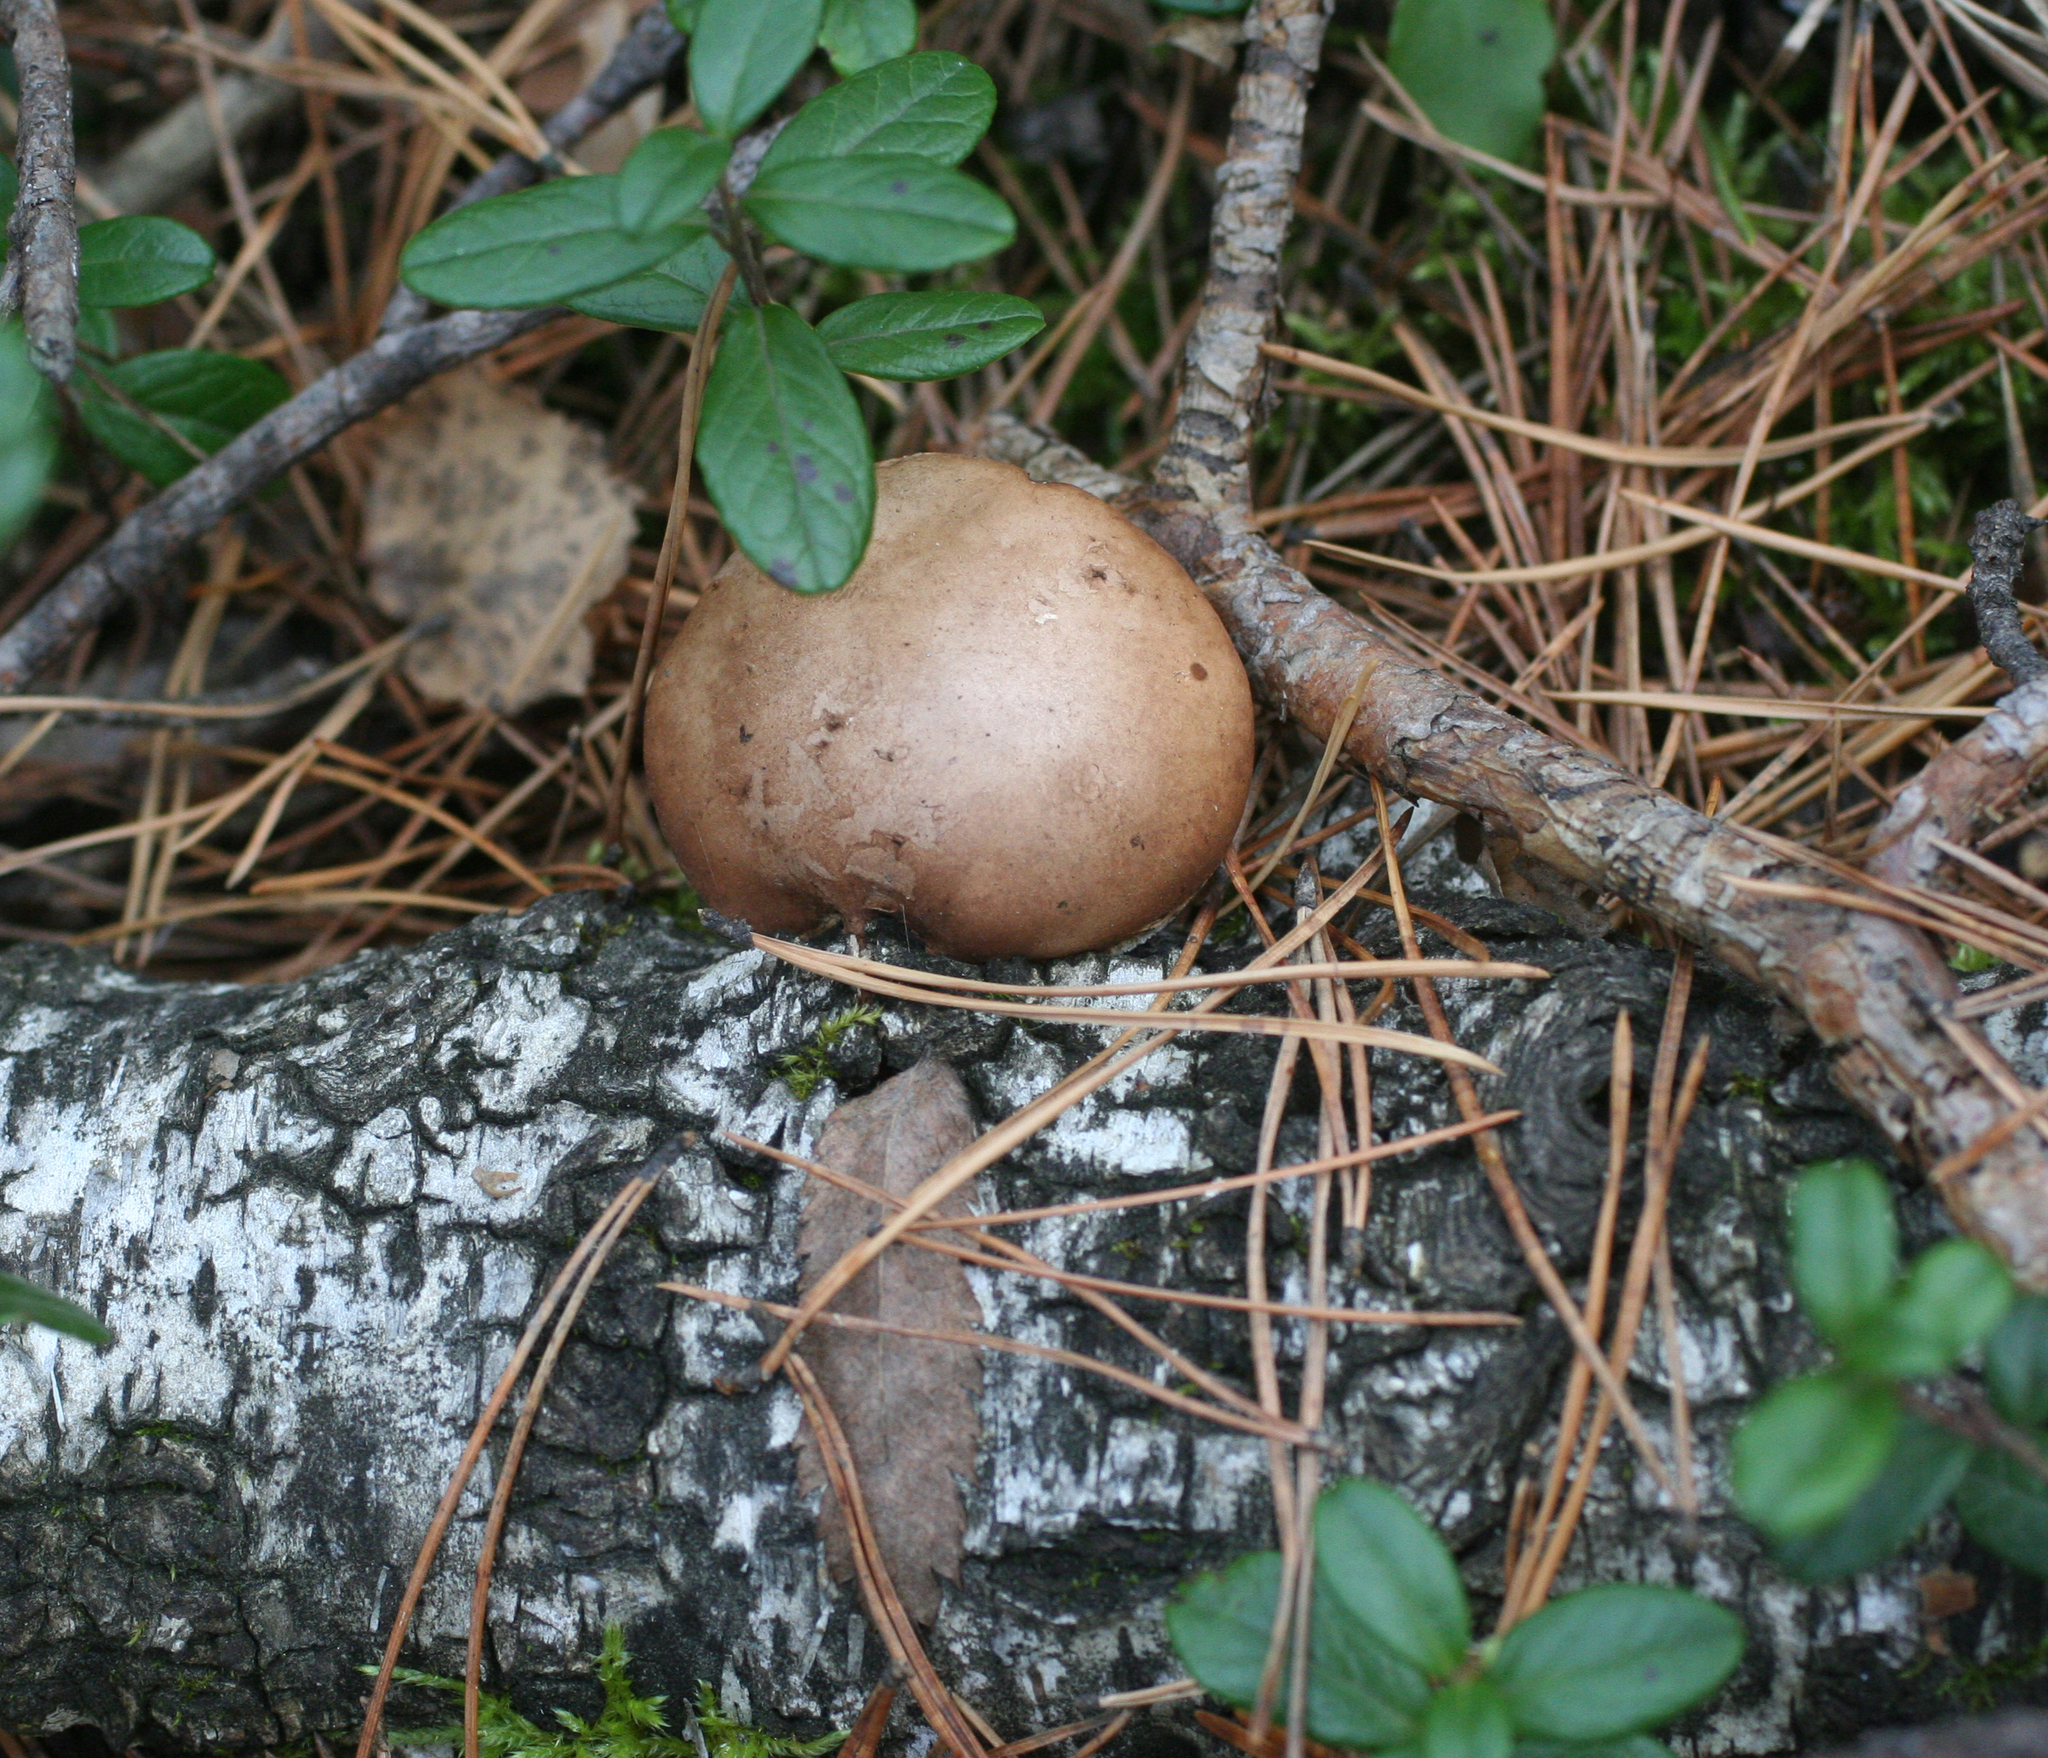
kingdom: Fungi
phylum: Basidiomycota
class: Agaricomycetes
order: Polyporales
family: Fomitopsidaceae
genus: Fomitopsis
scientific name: Fomitopsis betulina
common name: Birch polypore
